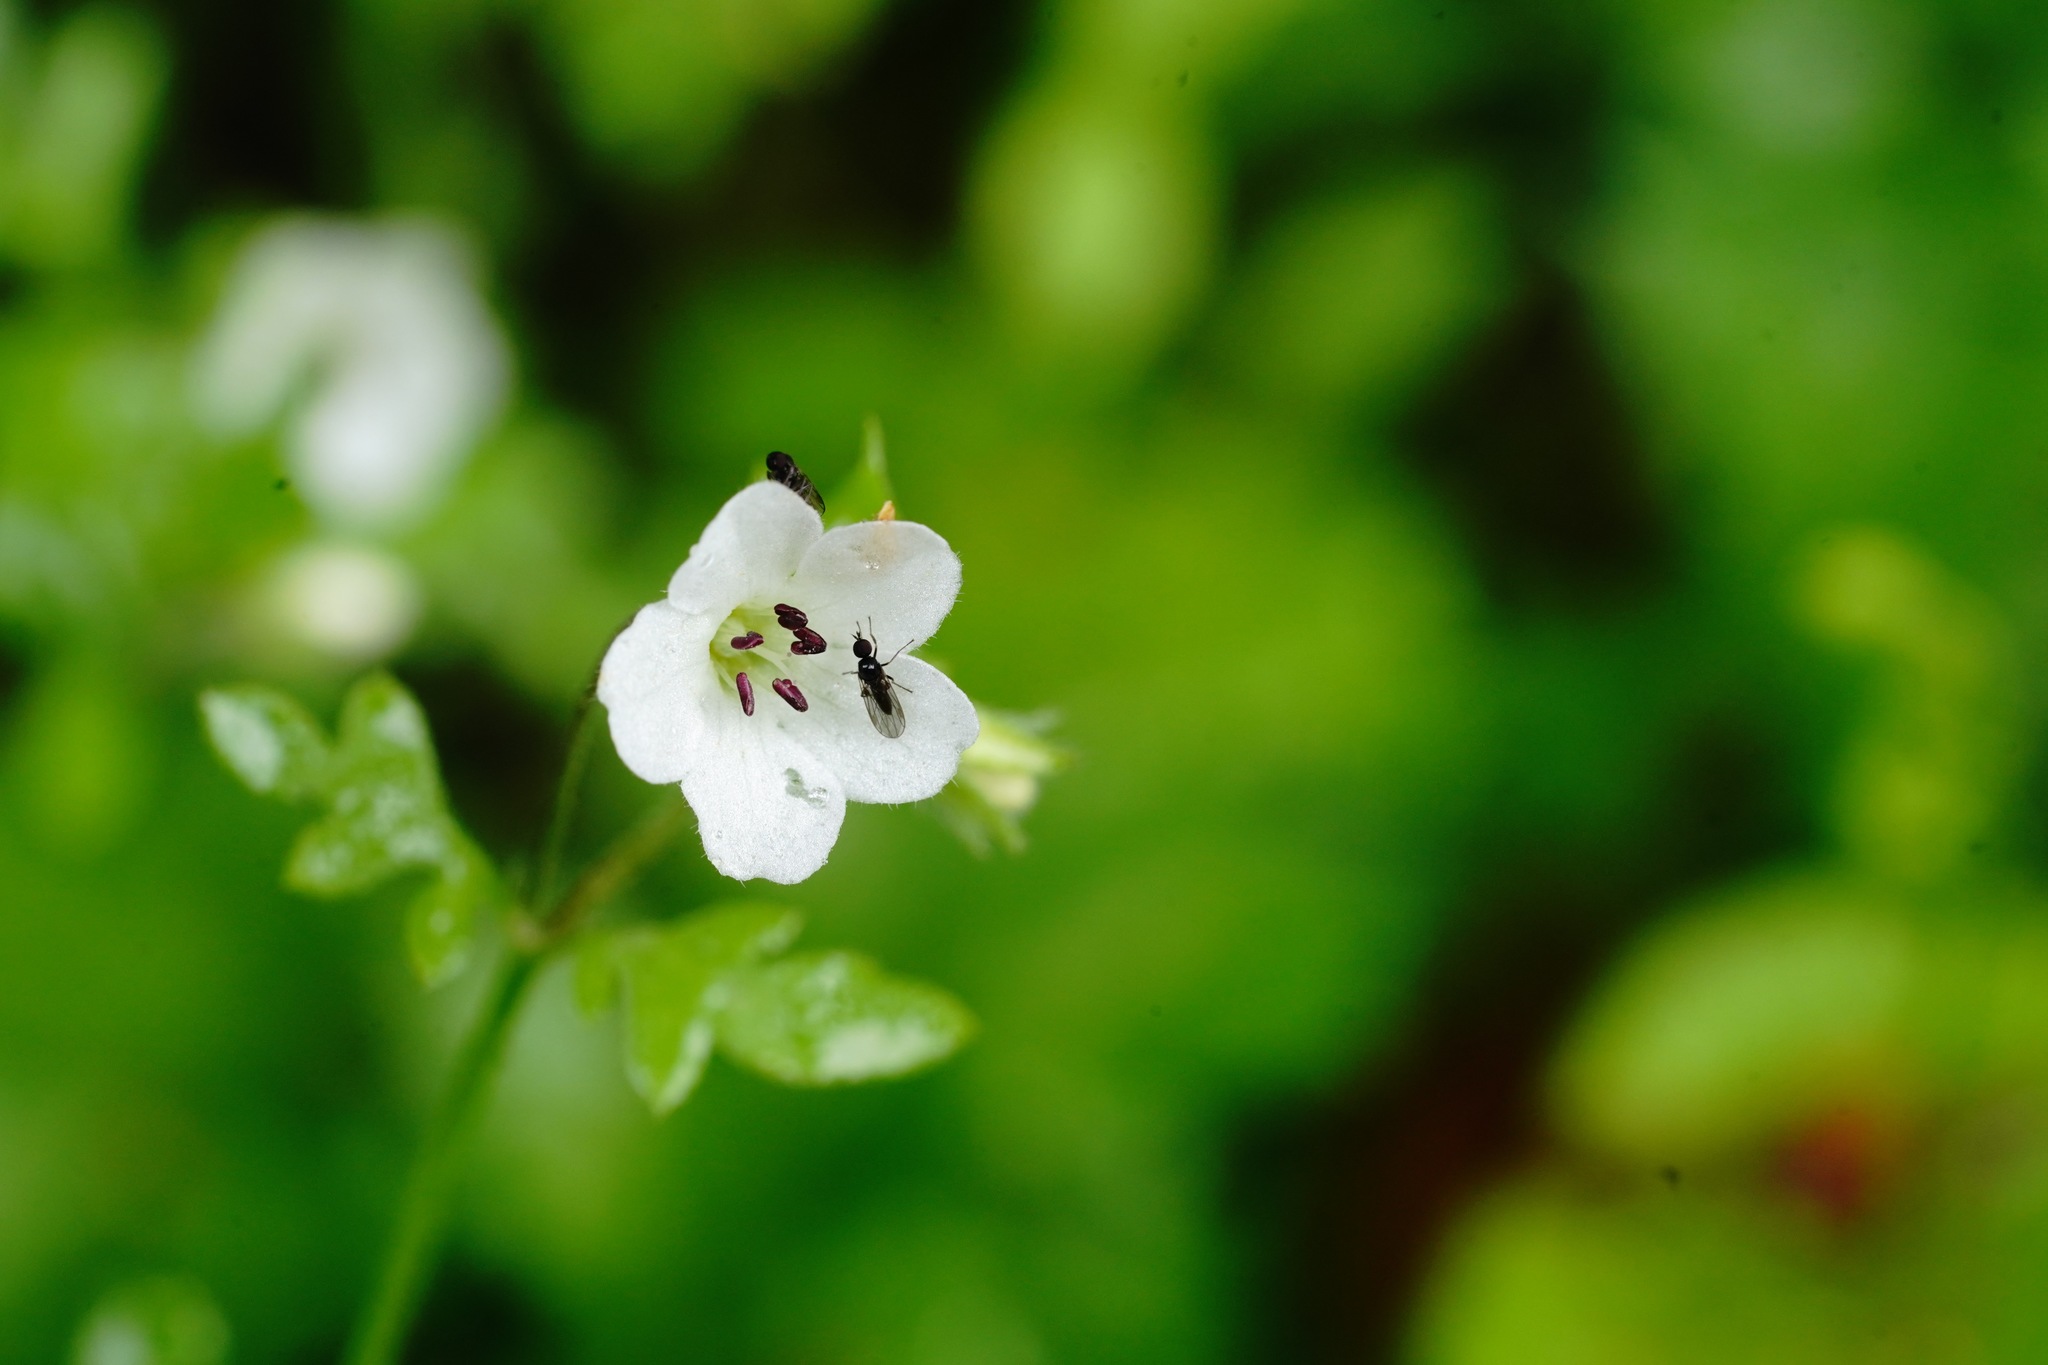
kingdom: Plantae
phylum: Tracheophyta
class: Magnoliopsida
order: Boraginales
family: Hydrophyllaceae
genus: Nemophila
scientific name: Nemophila heterophylla
